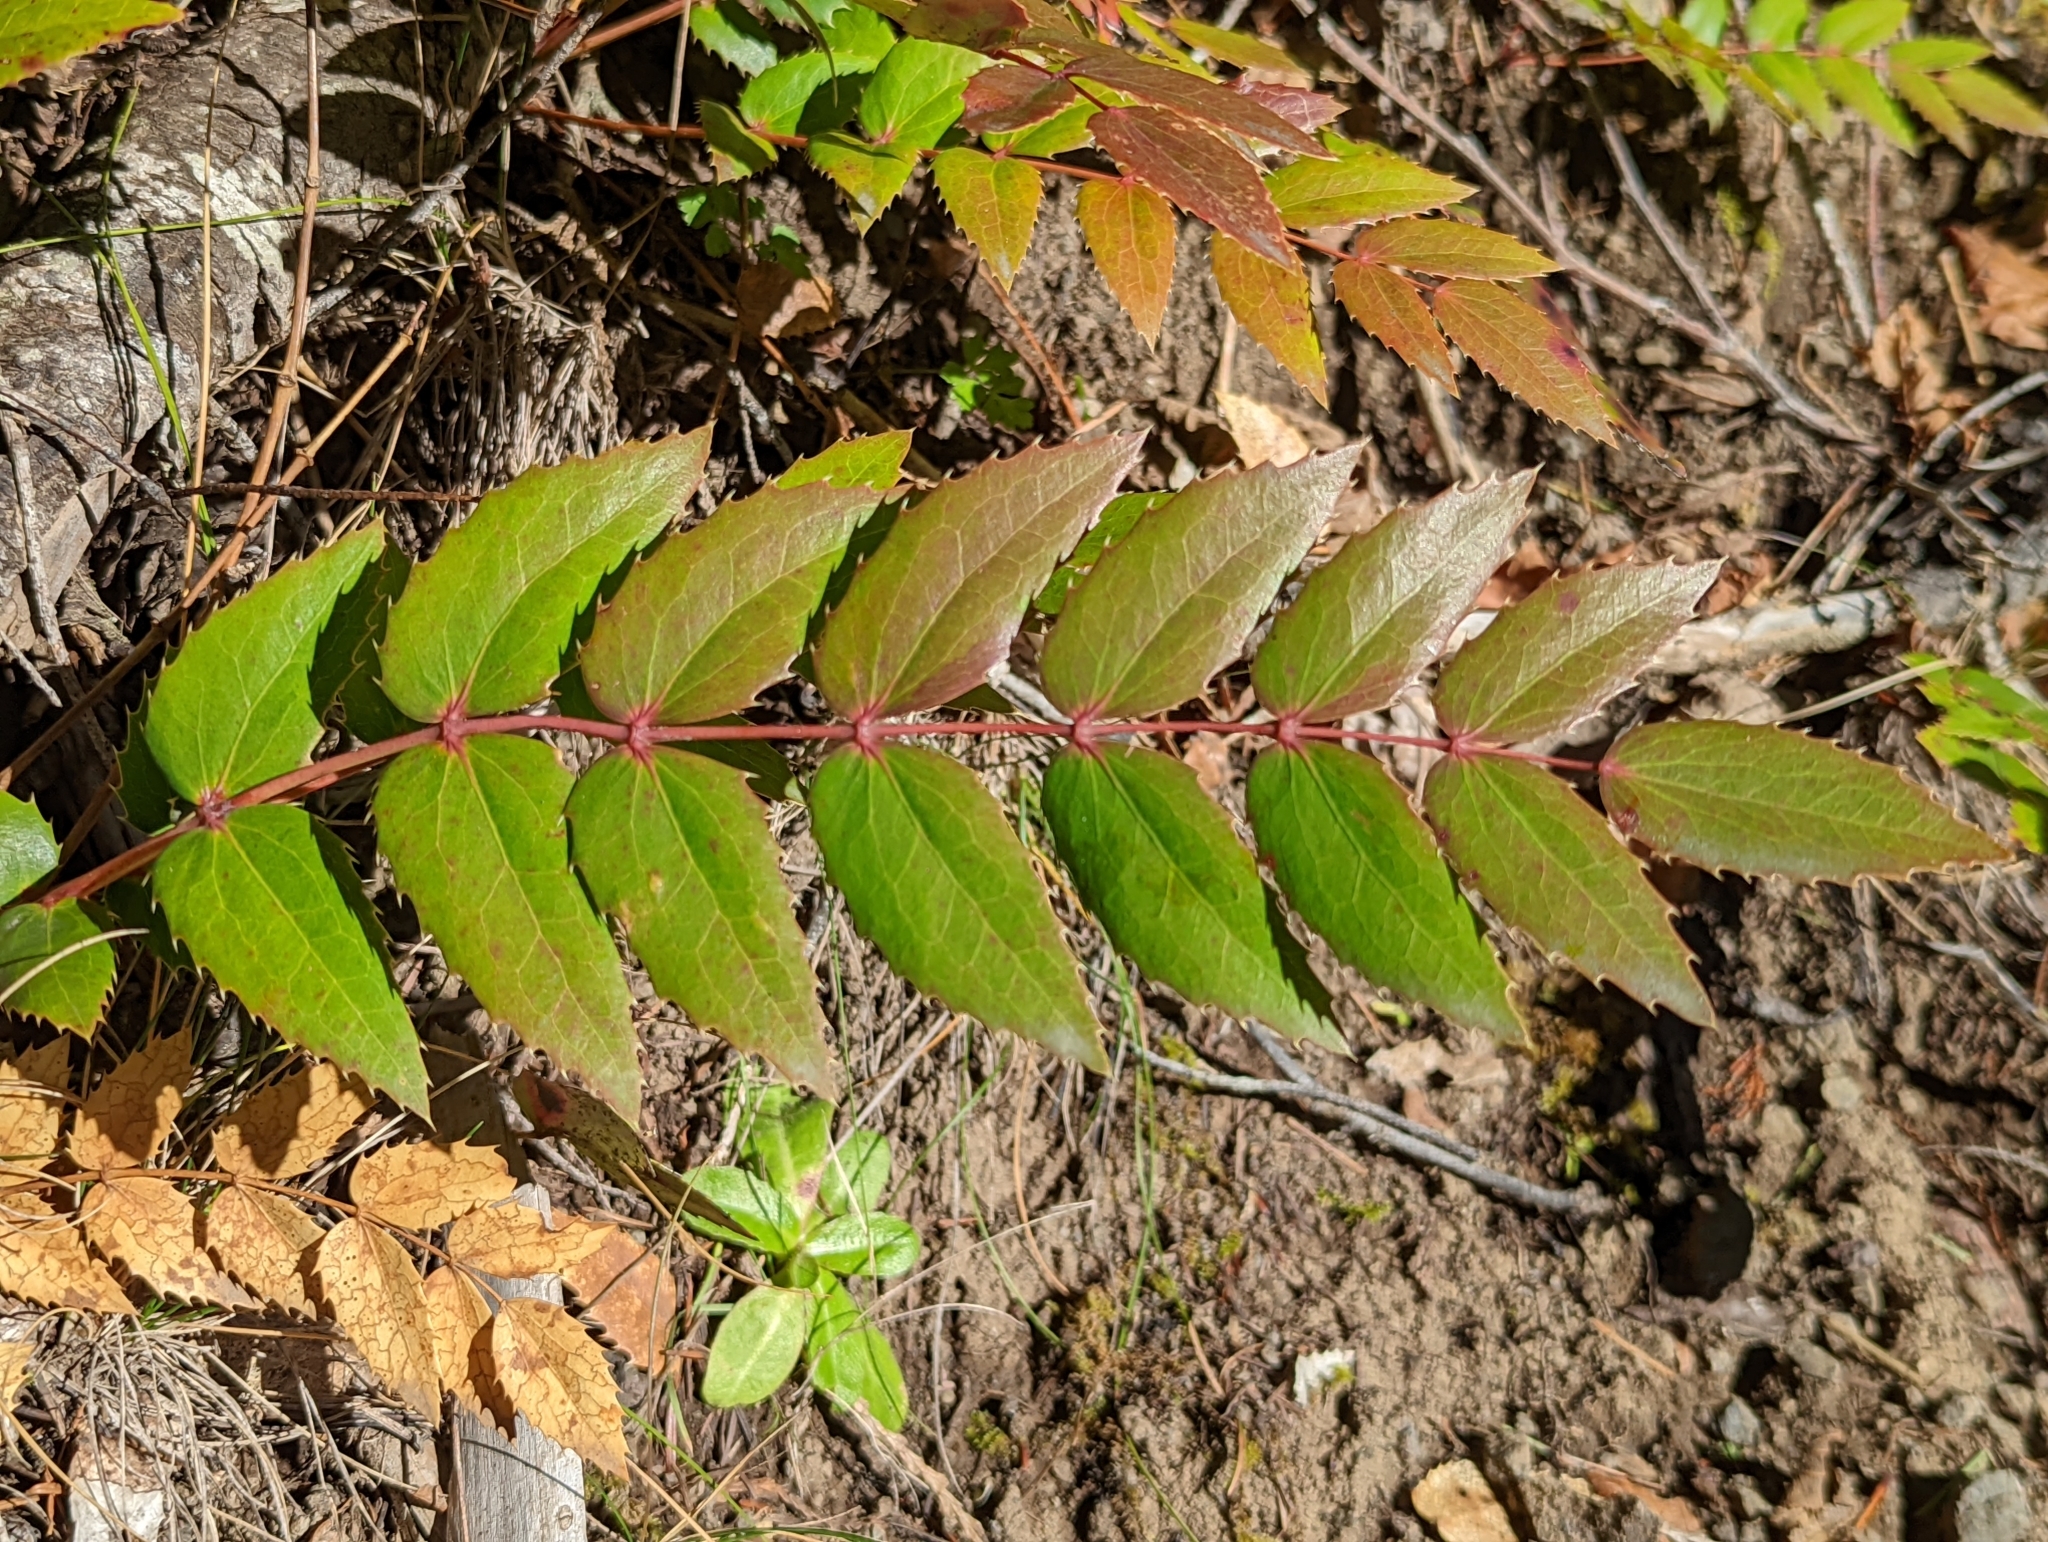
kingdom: Plantae
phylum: Tracheophyta
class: Magnoliopsida
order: Ranunculales
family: Berberidaceae
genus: Mahonia
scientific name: Mahonia nervosa
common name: Cascade oregon-grape
